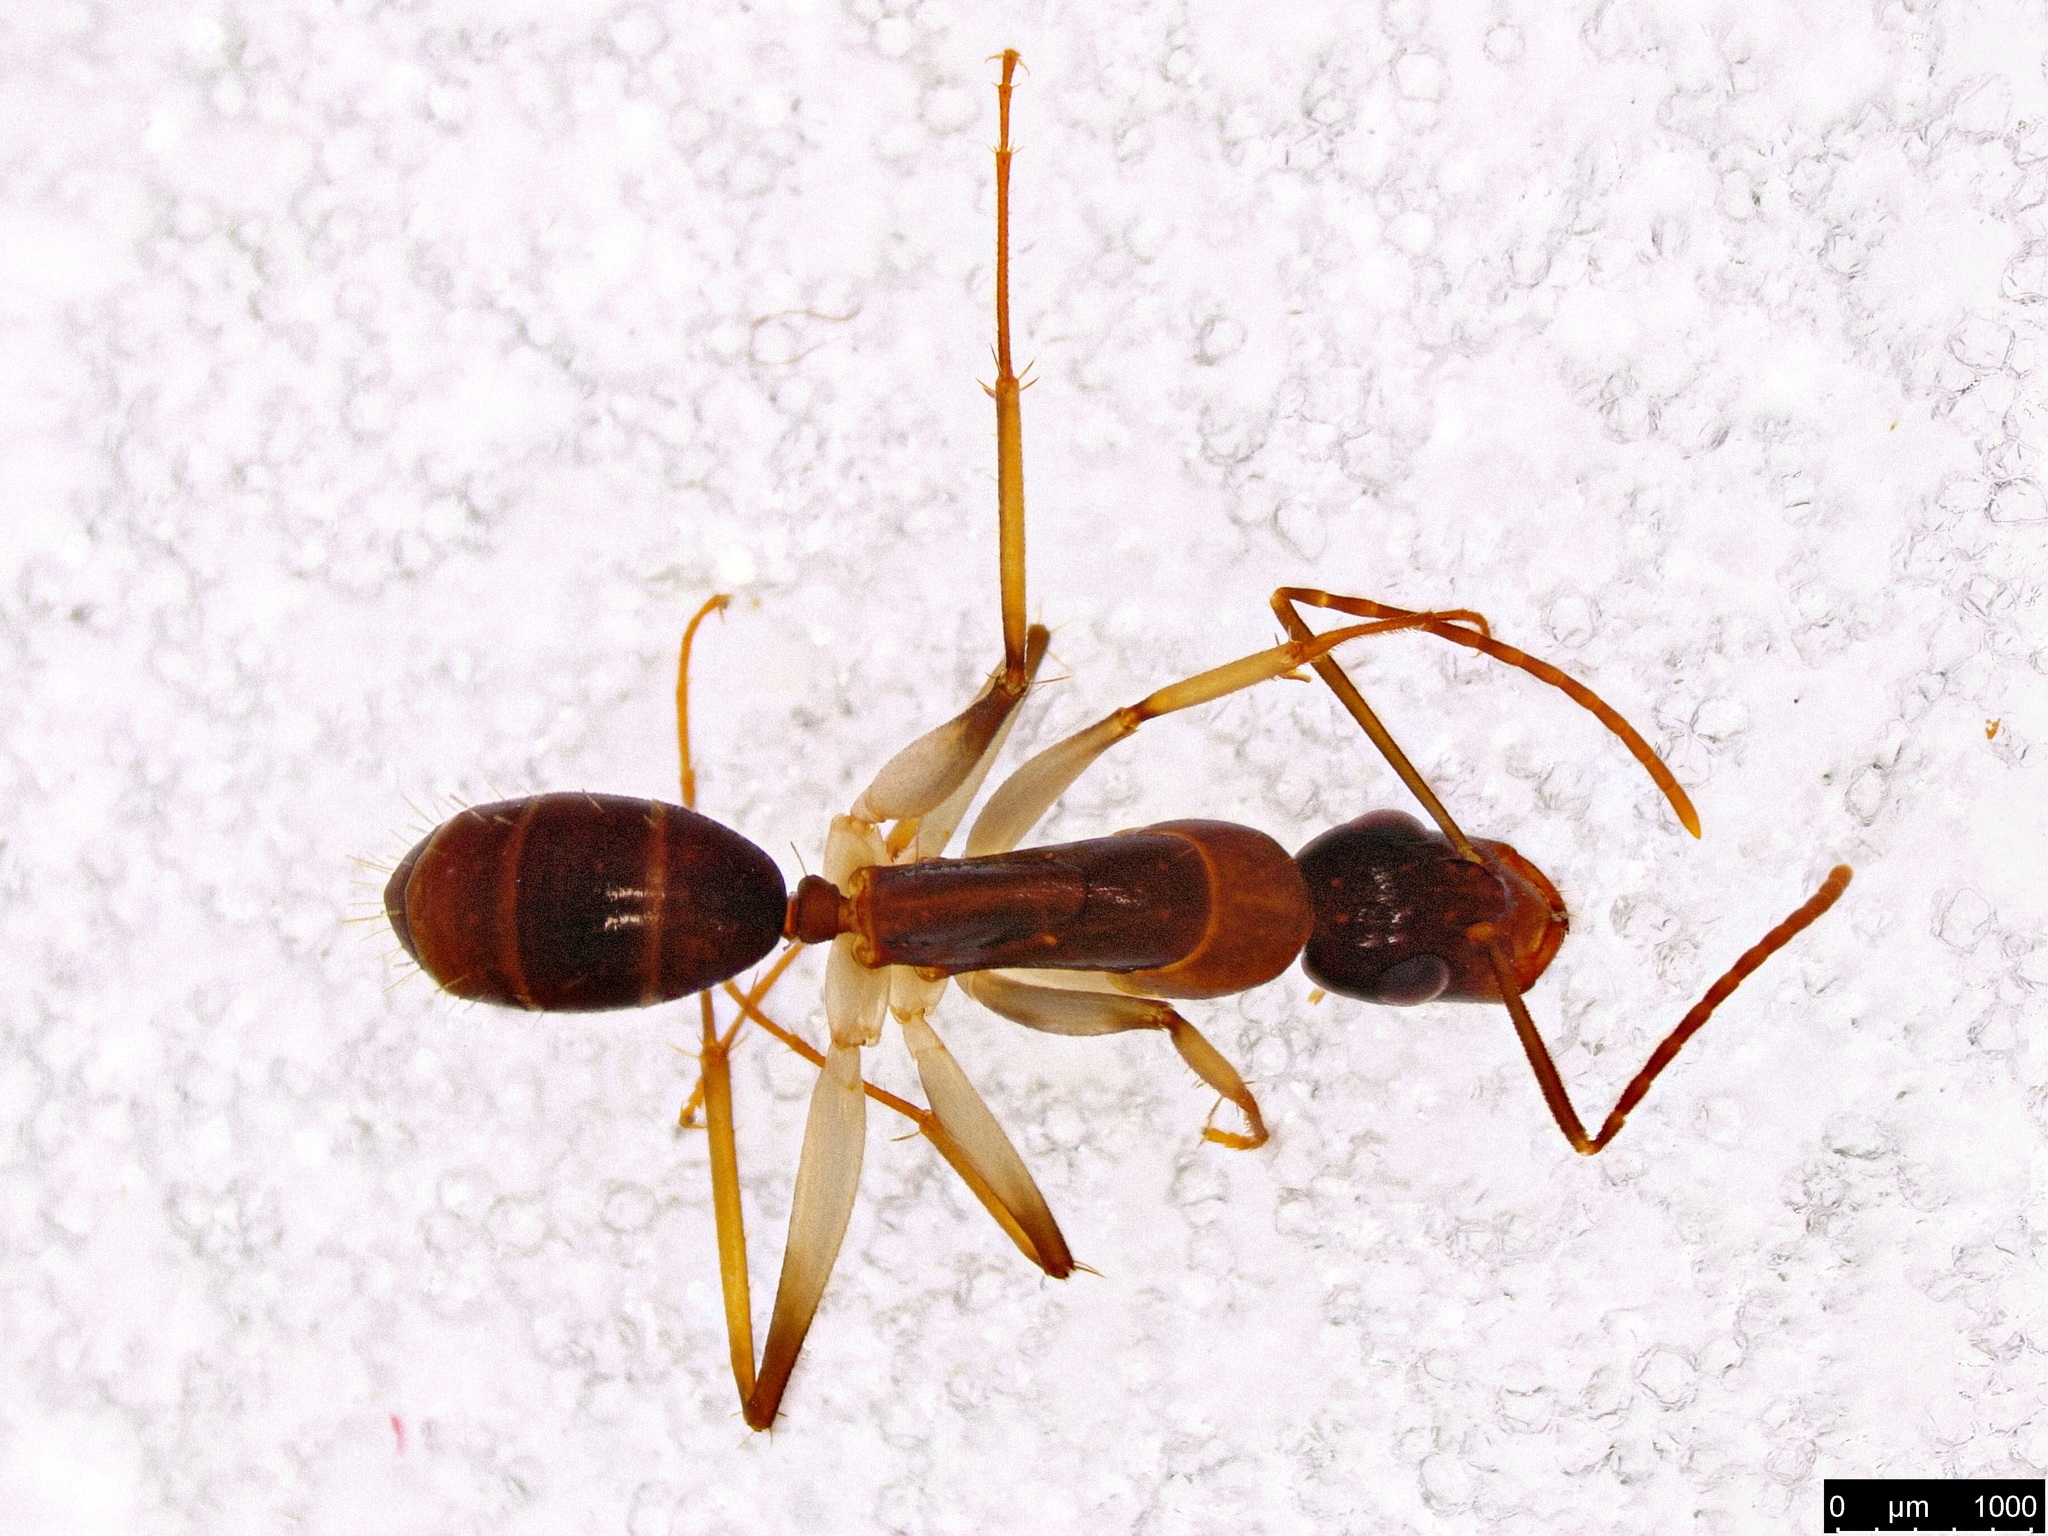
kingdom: Animalia
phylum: Arthropoda
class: Insecta
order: Hymenoptera
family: Formicidae
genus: Camponotus
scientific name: Camponotus claripes
